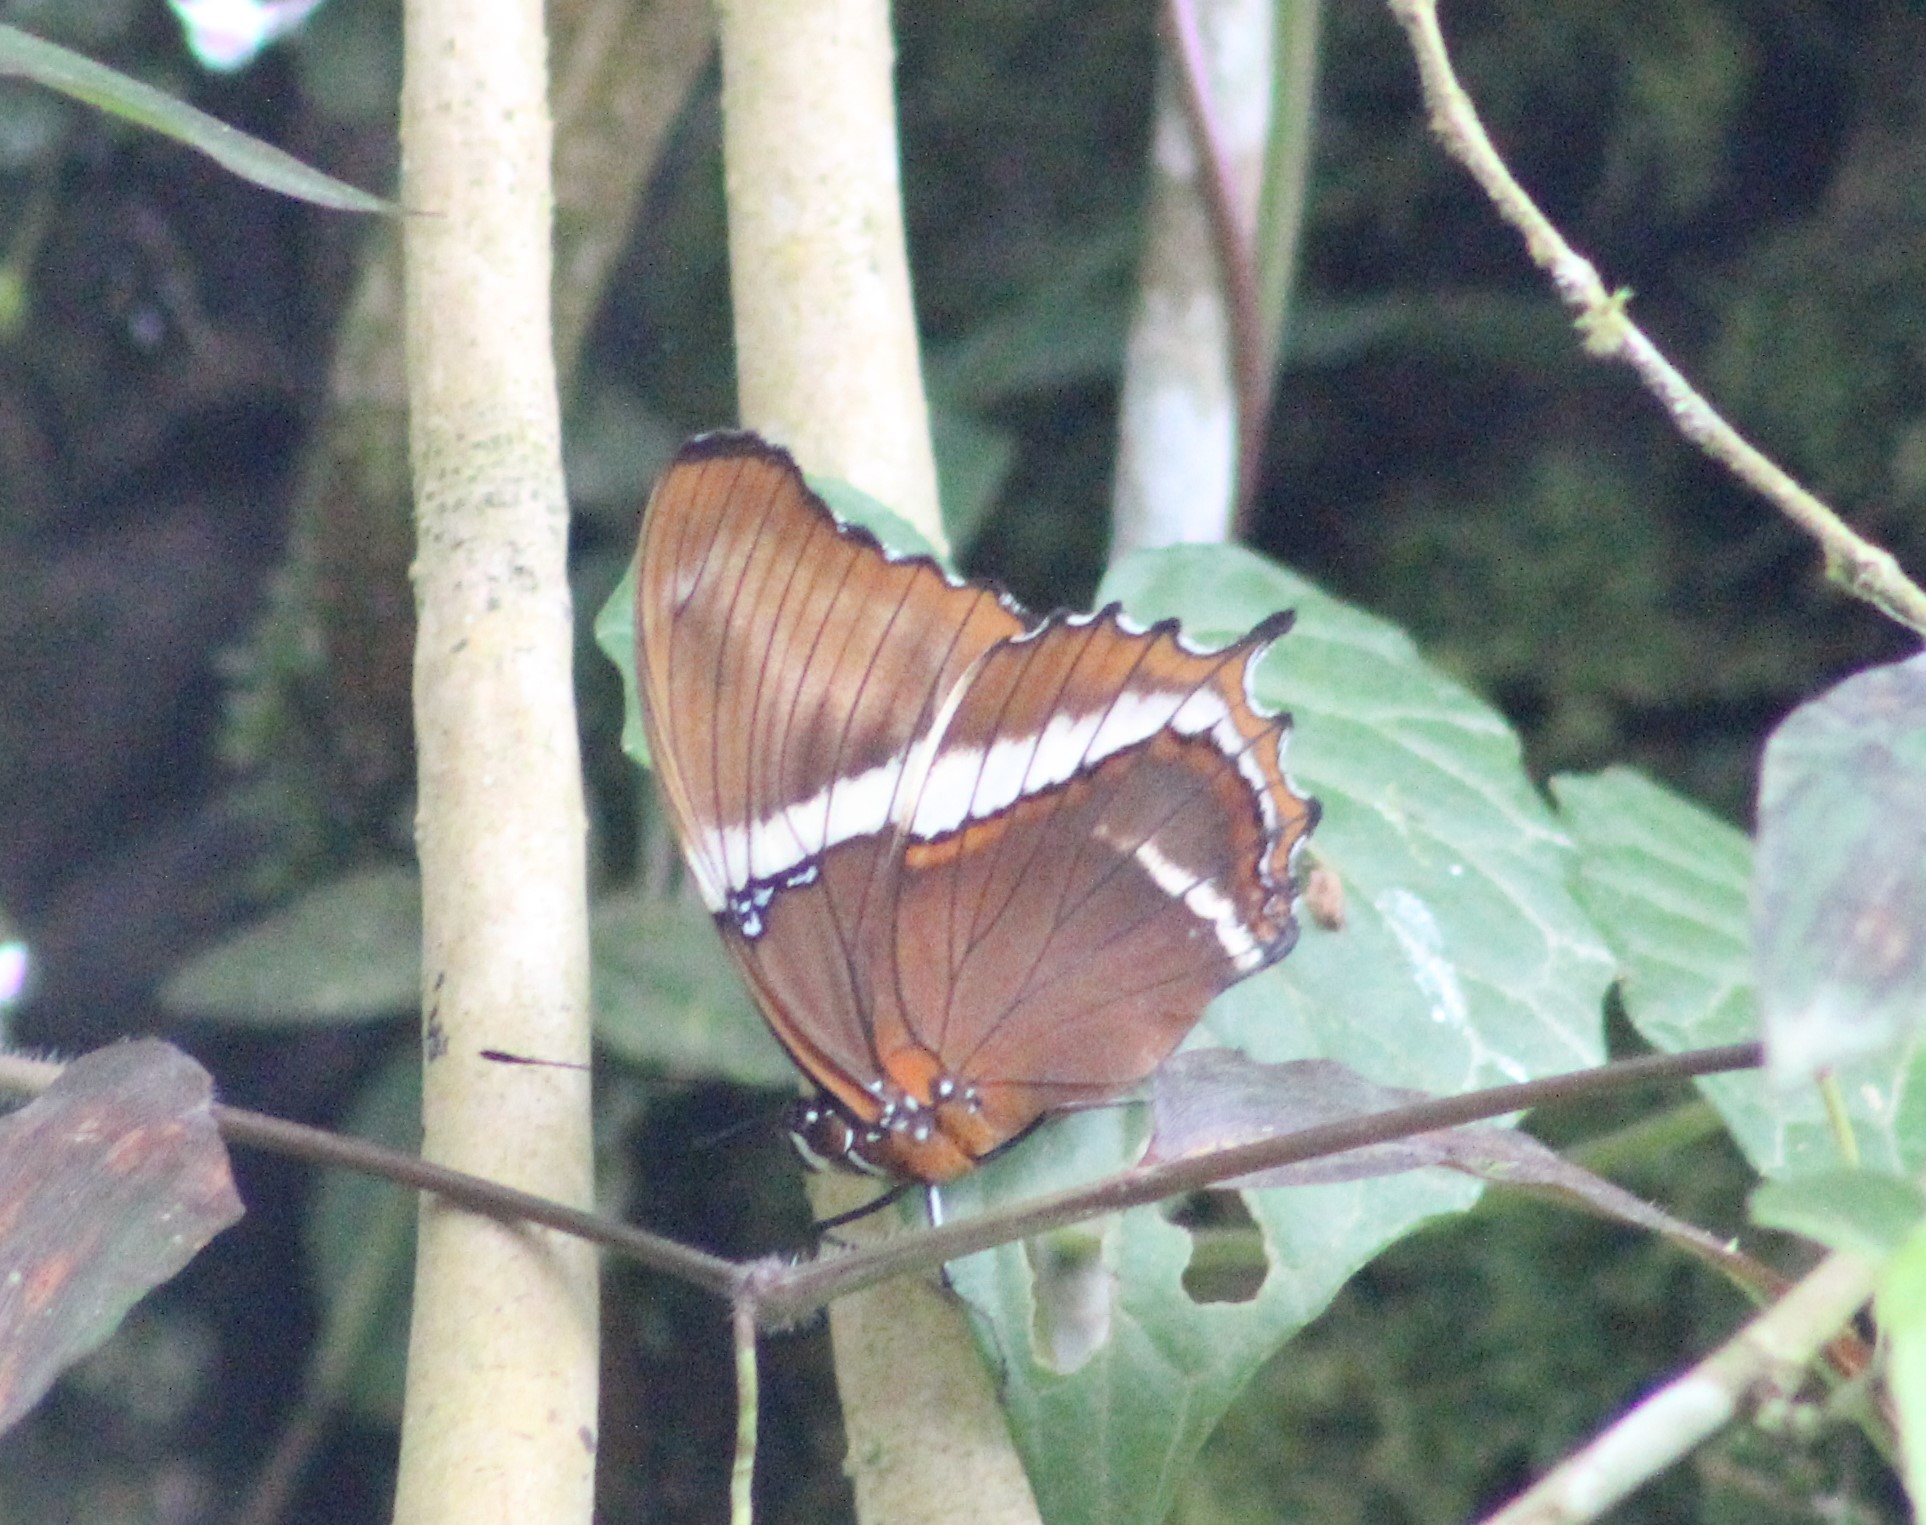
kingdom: Animalia
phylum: Arthropoda
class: Insecta
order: Lepidoptera
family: Nymphalidae
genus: Siproeta
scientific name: Siproeta epaphus
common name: Rusty-tipped page
